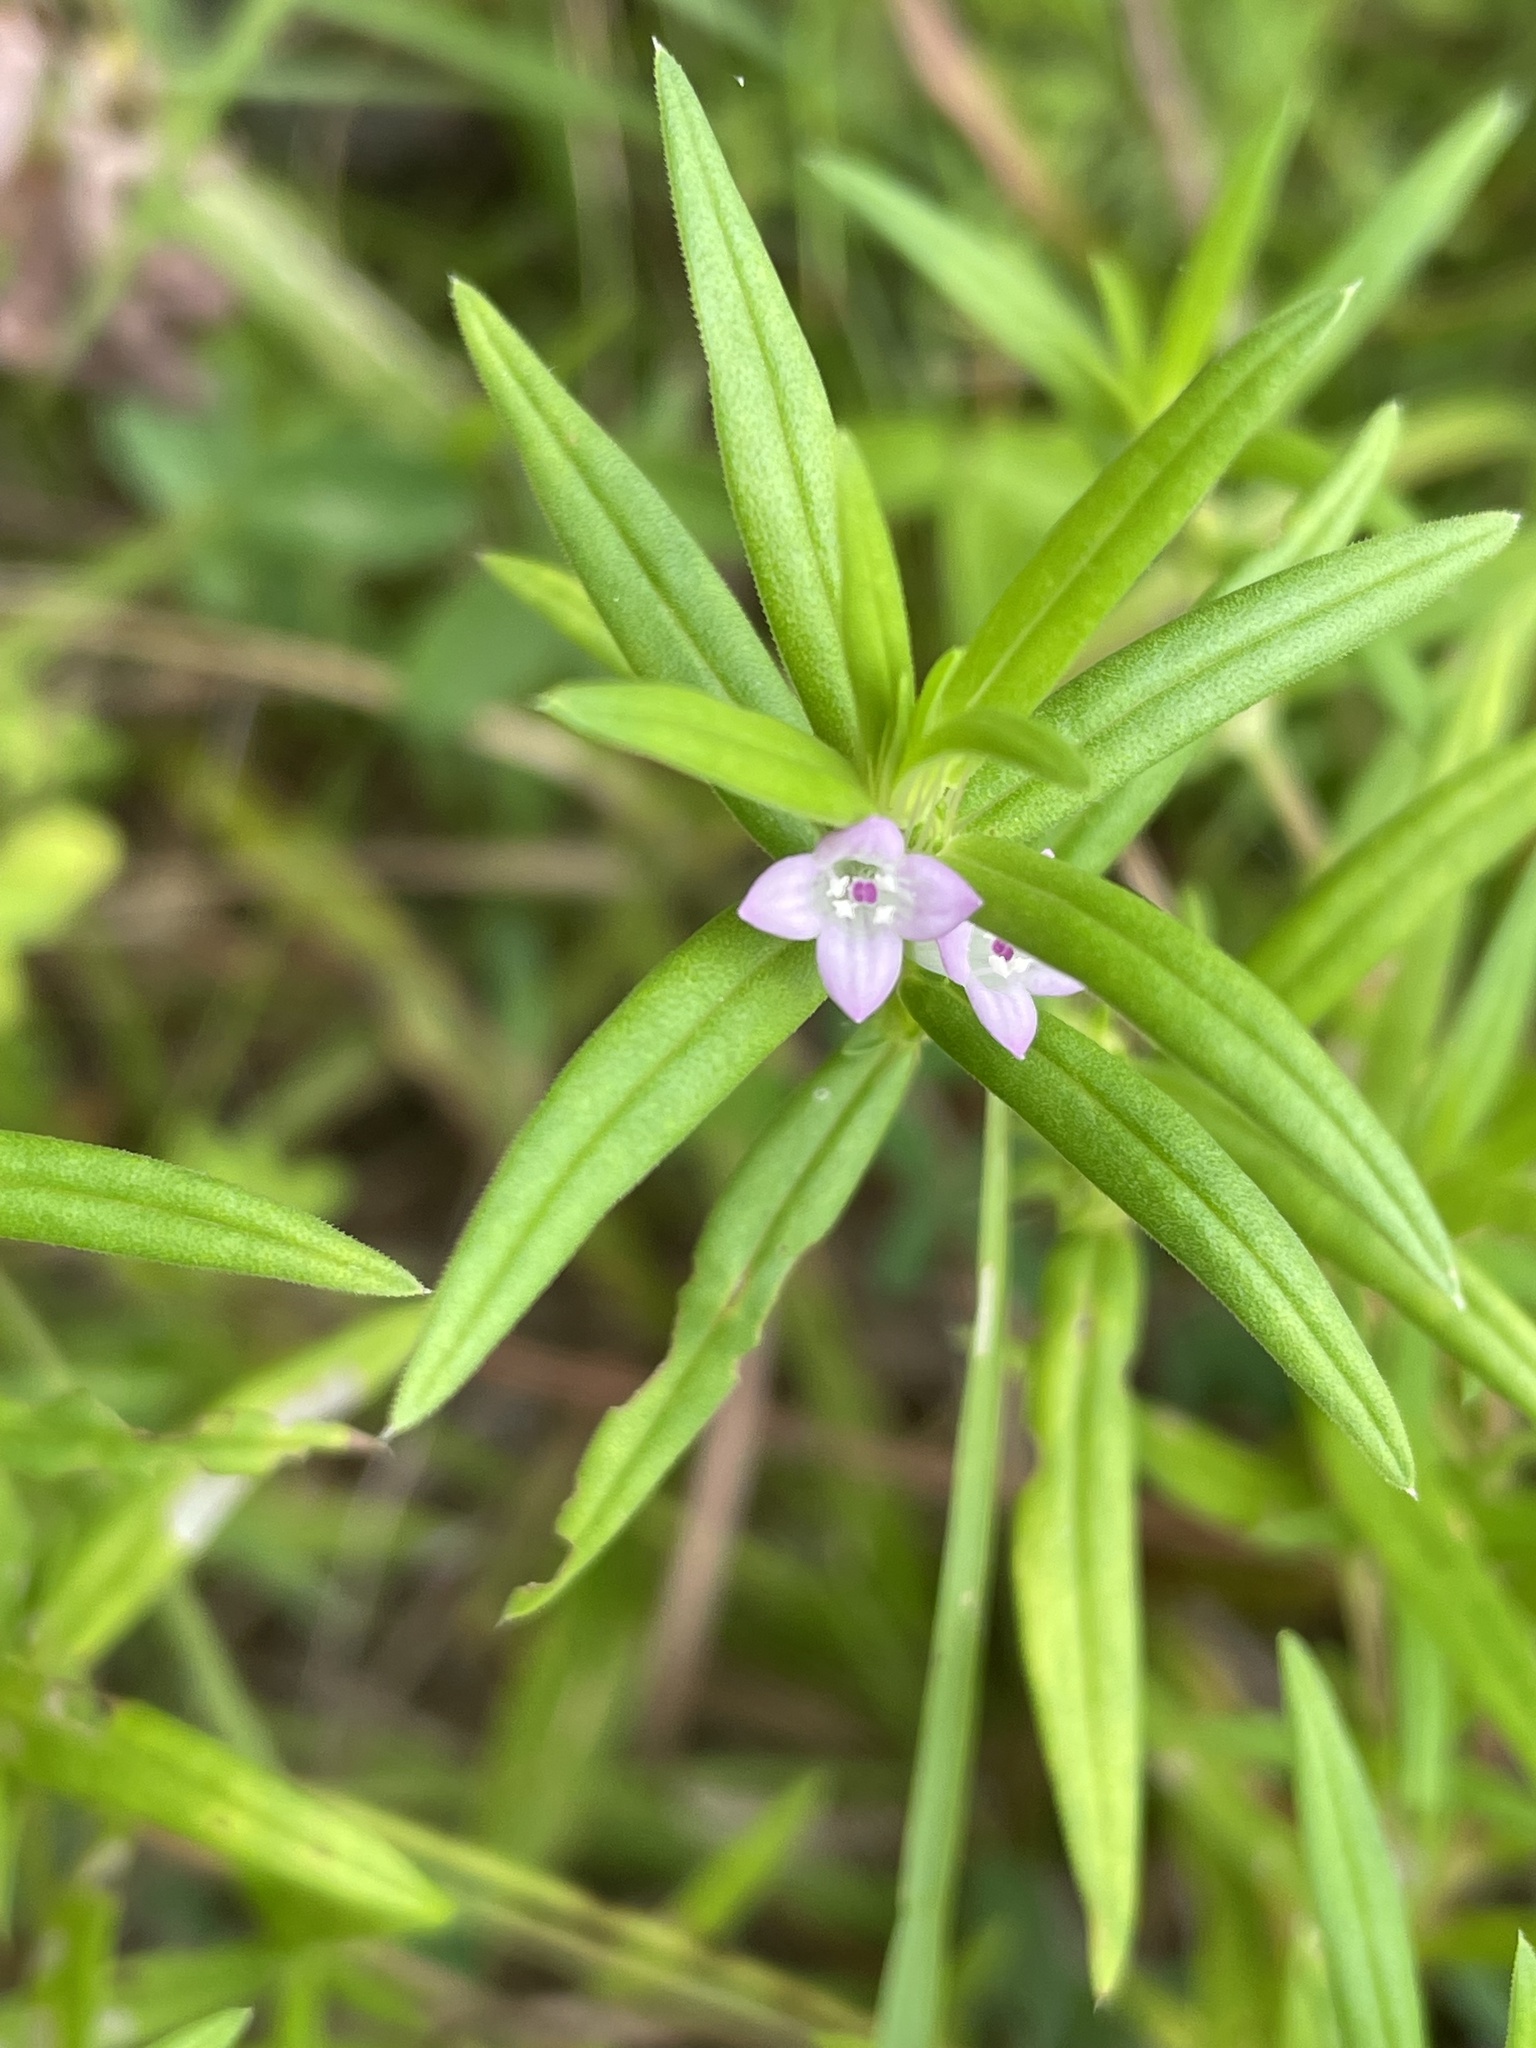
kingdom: Plantae
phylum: Tracheophyta
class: Magnoliopsida
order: Gentianales
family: Rubiaceae
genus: Hexasepalum
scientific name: Hexasepalum teres
